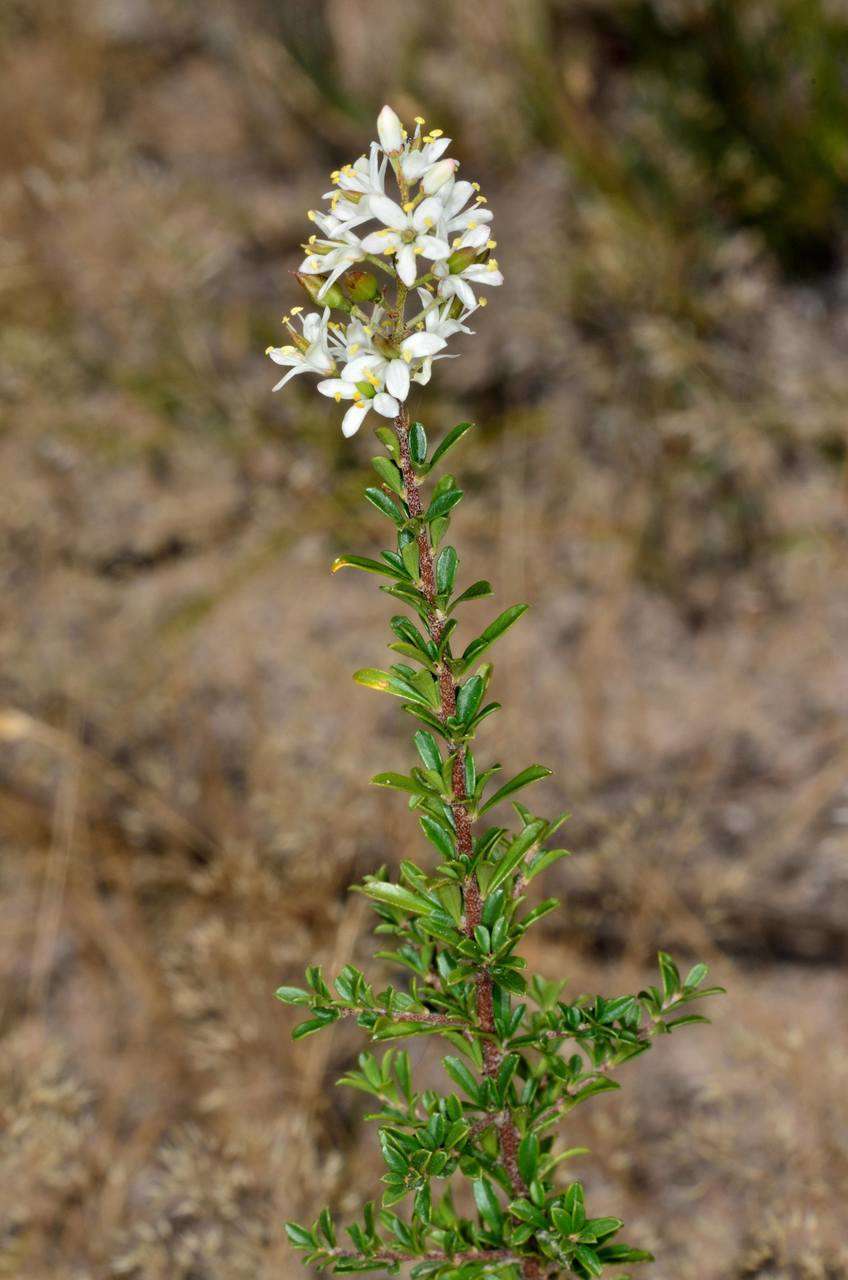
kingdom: Plantae
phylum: Tracheophyta
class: Magnoliopsida
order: Apiales
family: Pittosporaceae
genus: Bursaria
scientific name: Bursaria spinosa
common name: Australian blackthorn
